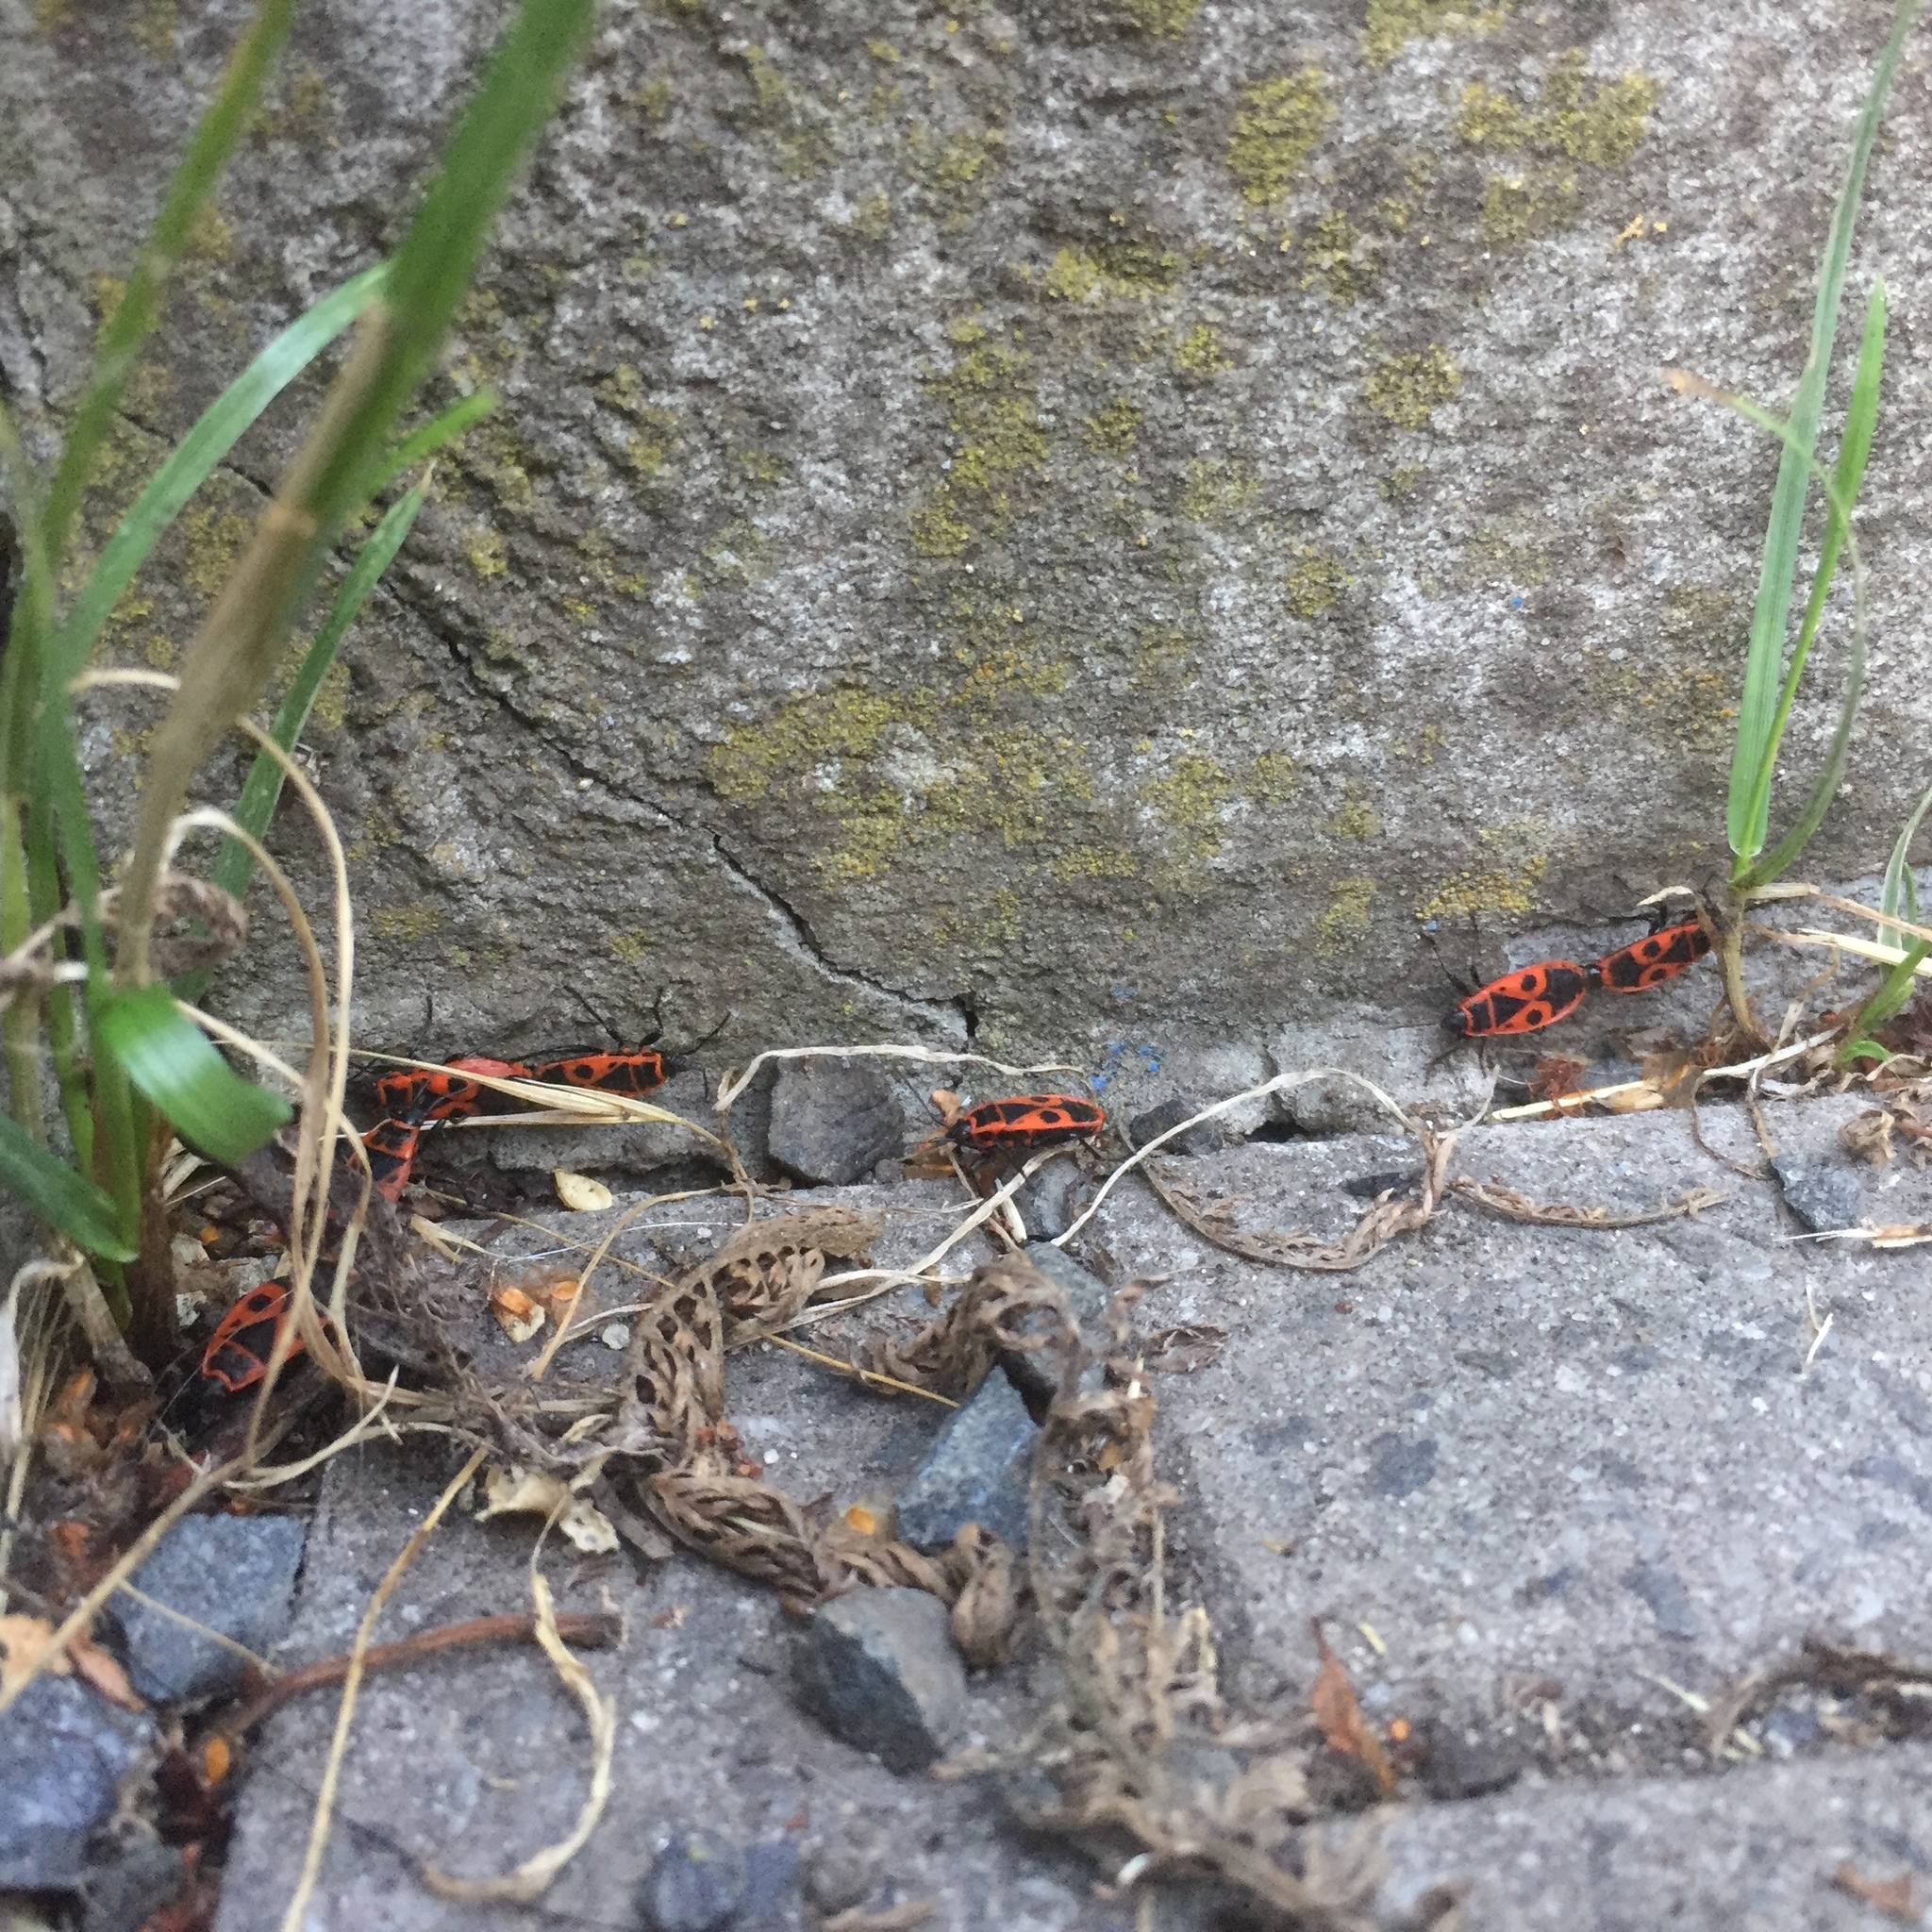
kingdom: Animalia
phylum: Arthropoda
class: Insecta
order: Hemiptera
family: Pyrrhocoridae
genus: Pyrrhocoris
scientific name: Pyrrhocoris apterus
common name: Firebug
